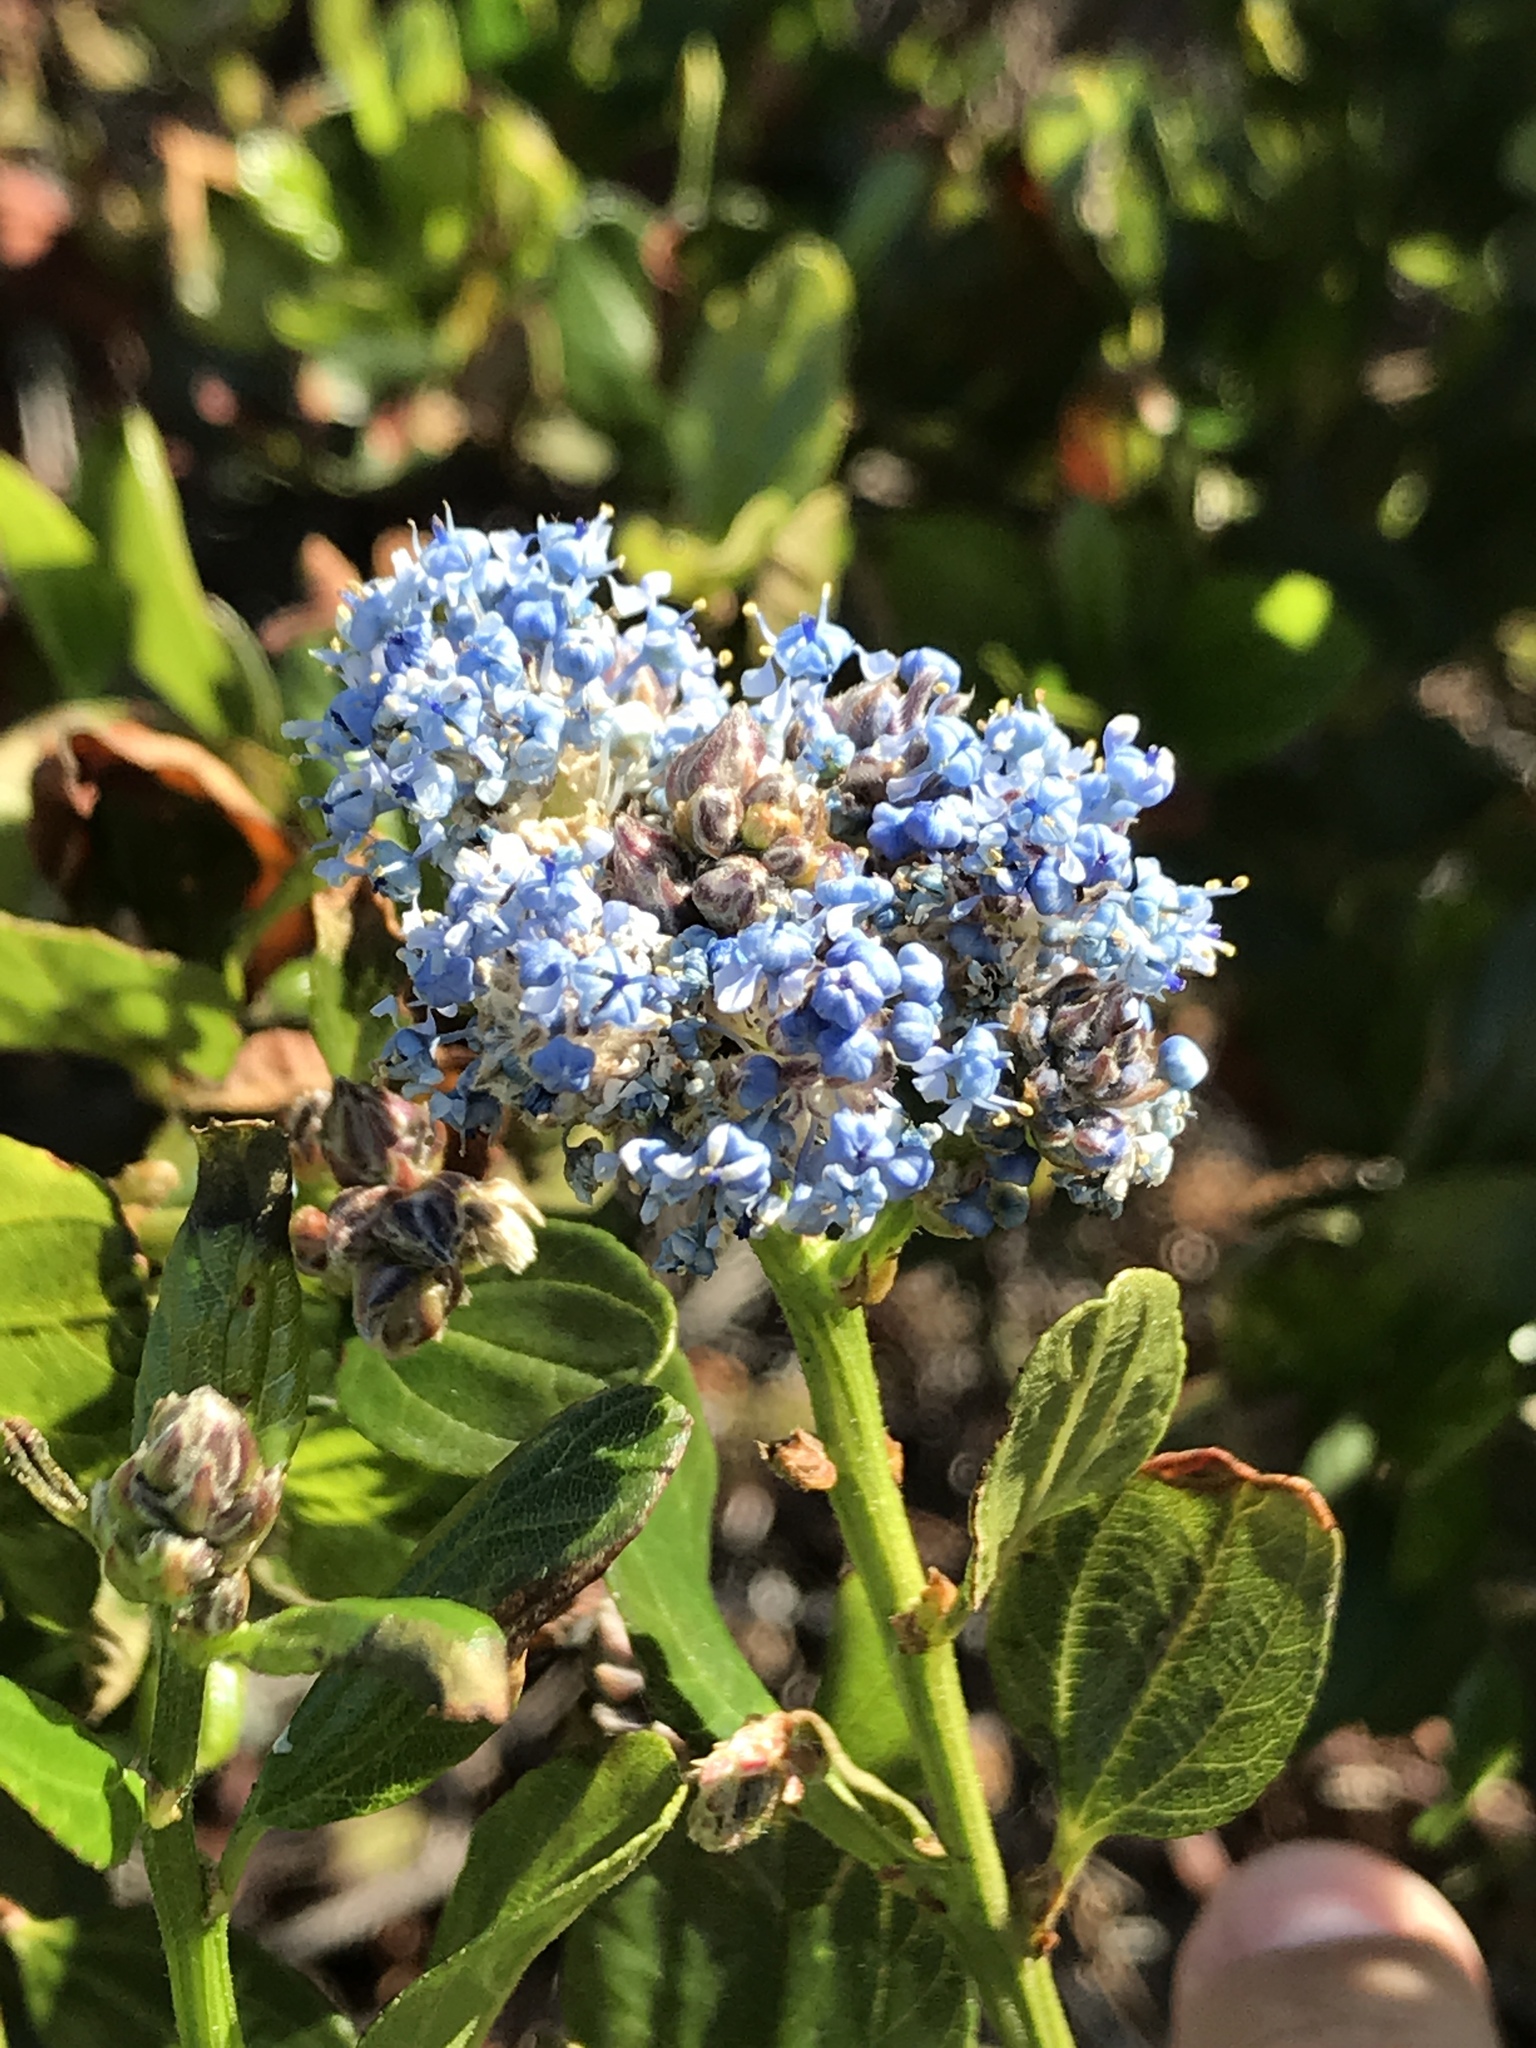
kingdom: Plantae
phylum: Tracheophyta
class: Magnoliopsida
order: Rosales
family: Rhamnaceae
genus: Ceanothus
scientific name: Ceanothus thyrsiflorus
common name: California-lilac
